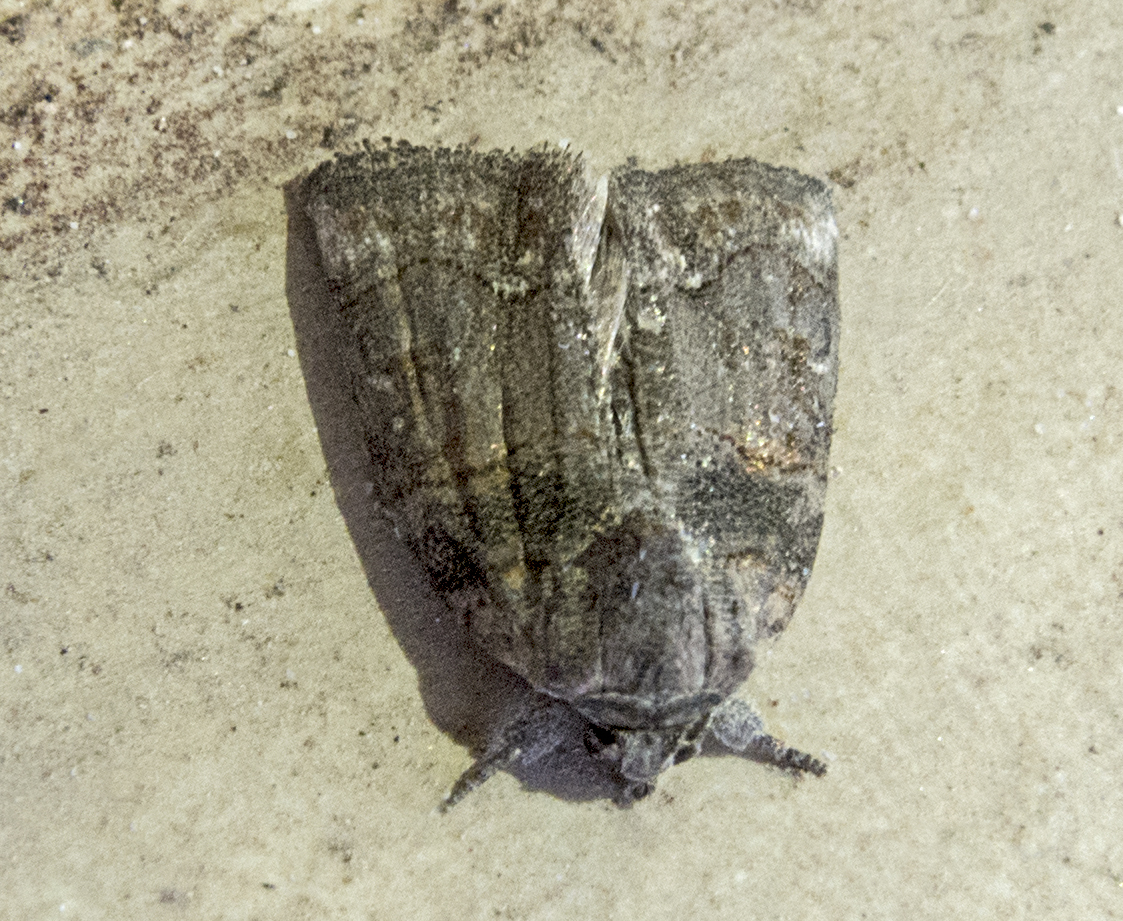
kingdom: Animalia
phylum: Arthropoda
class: Insecta
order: Lepidoptera
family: Noctuidae
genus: Bryophila
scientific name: Bryophila rectilinea
